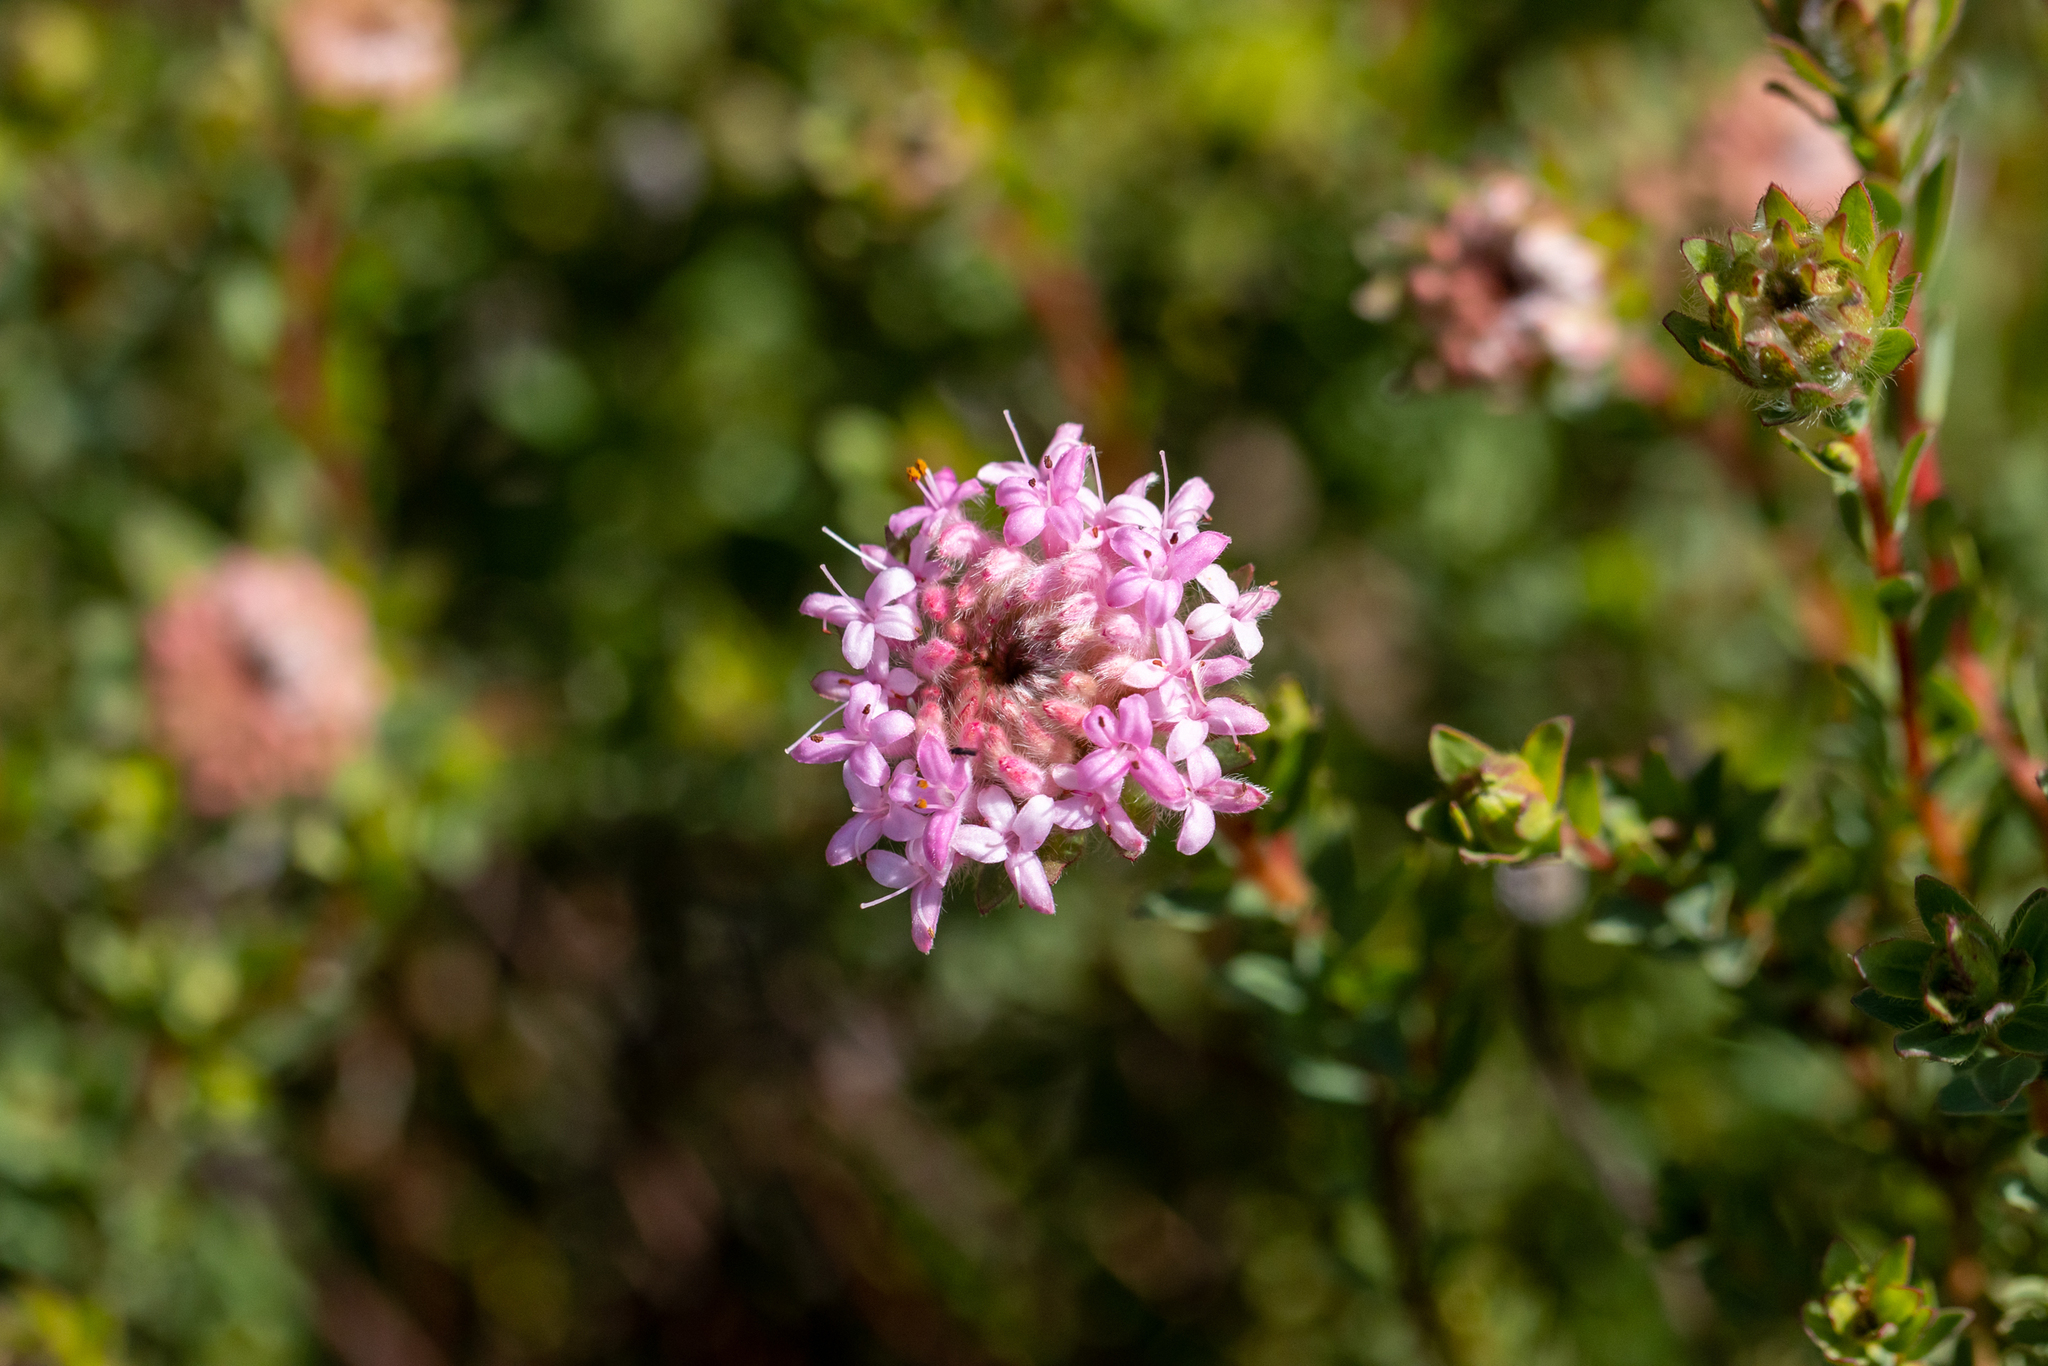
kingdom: Plantae
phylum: Tracheophyta
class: Magnoliopsida
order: Malvales
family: Thymelaeaceae
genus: Pimelea
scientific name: Pimelea imbricata
